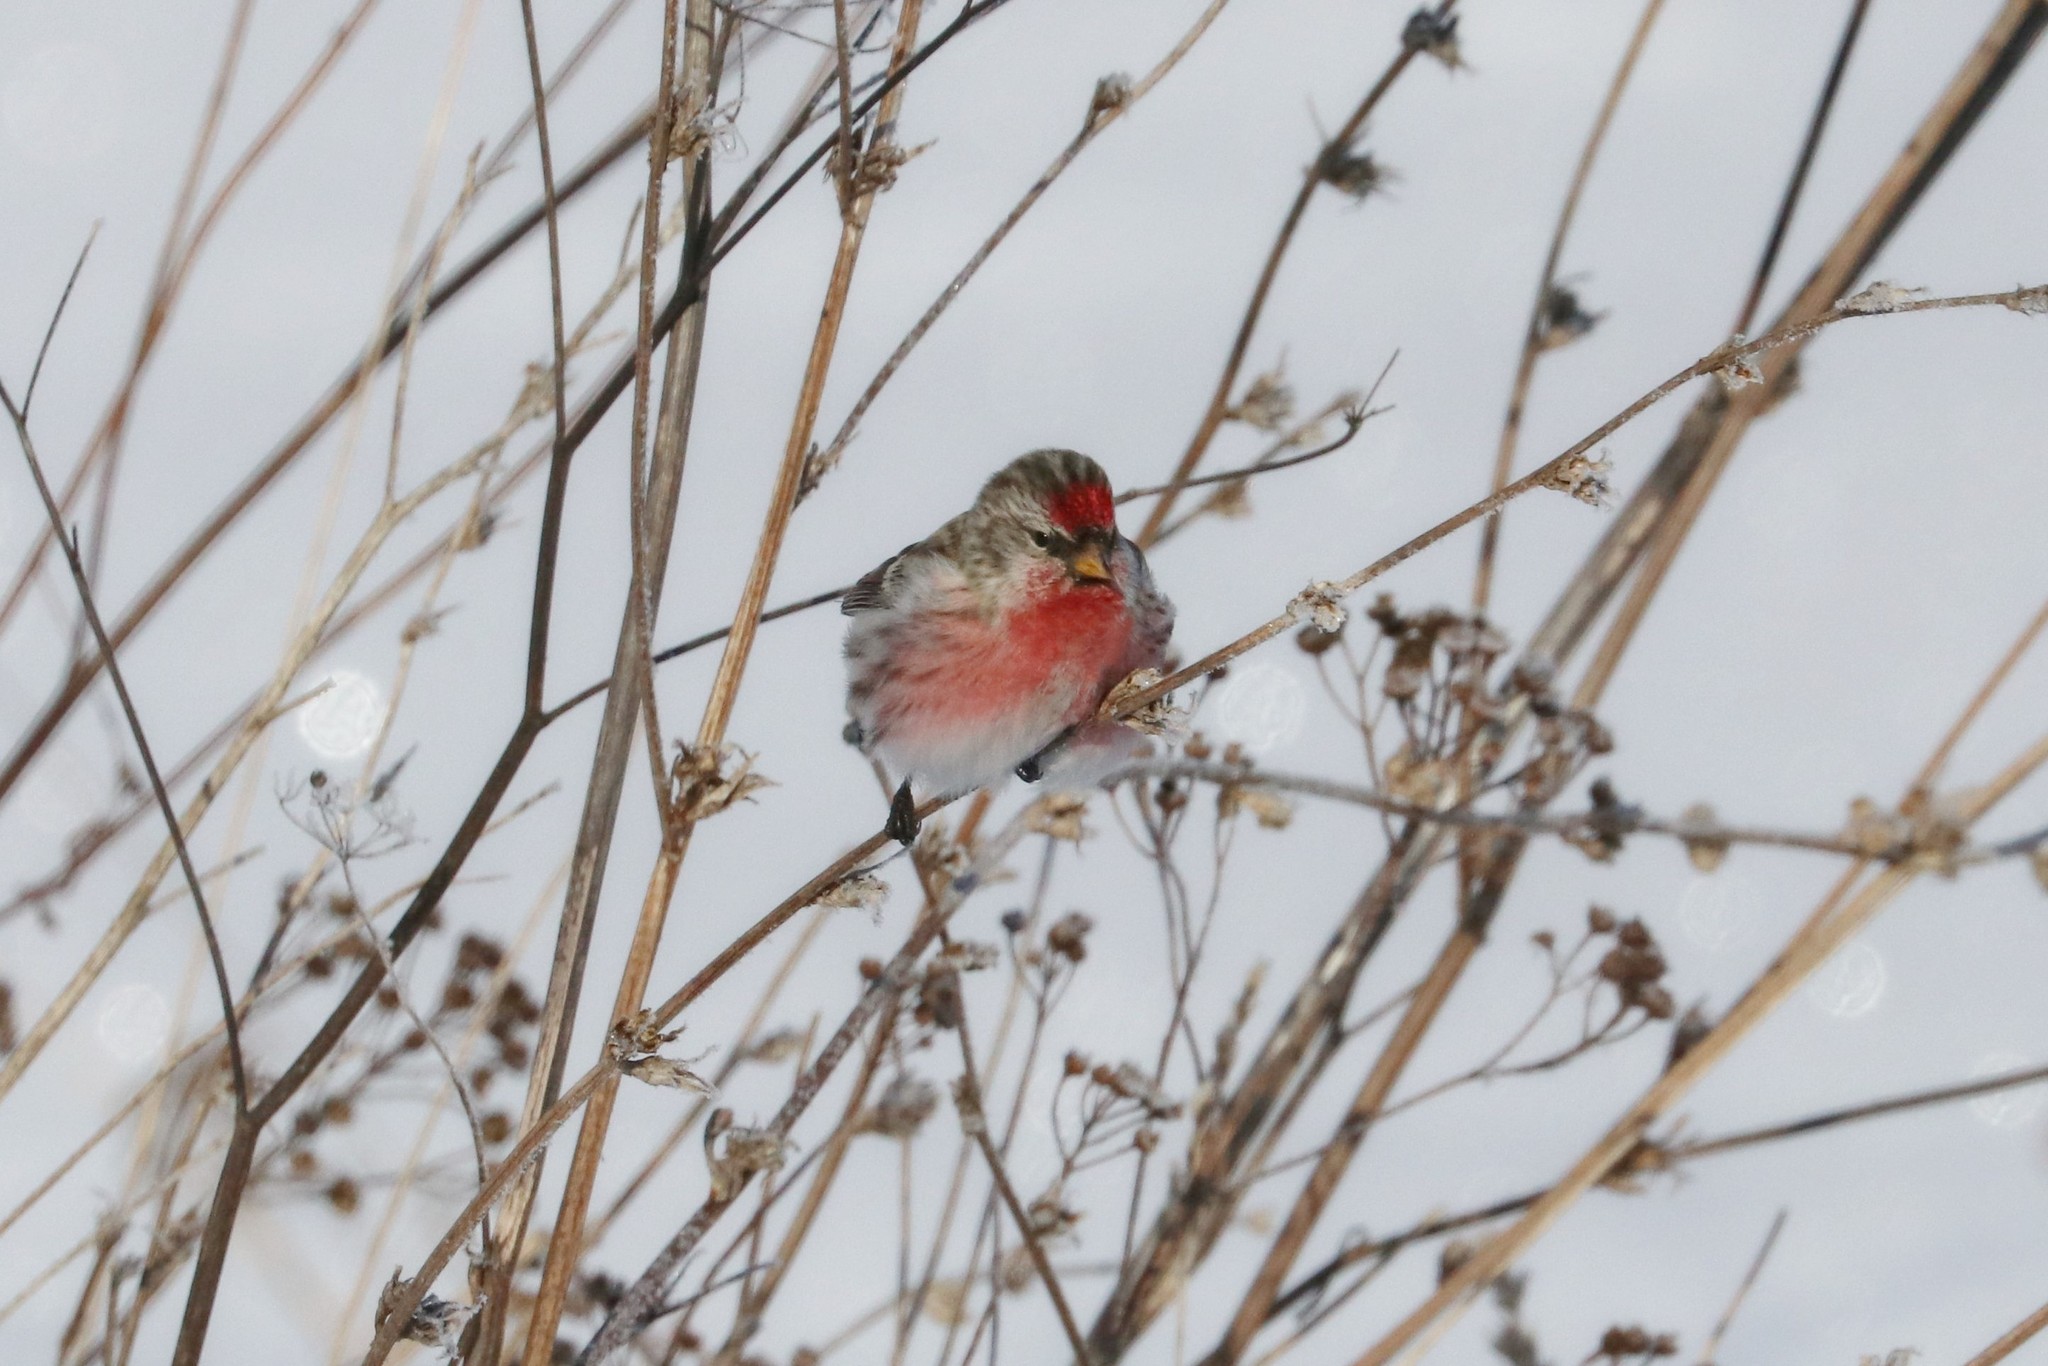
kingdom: Animalia
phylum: Chordata
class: Aves
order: Passeriformes
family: Fringillidae
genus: Acanthis
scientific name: Acanthis flammea
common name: Common redpoll
